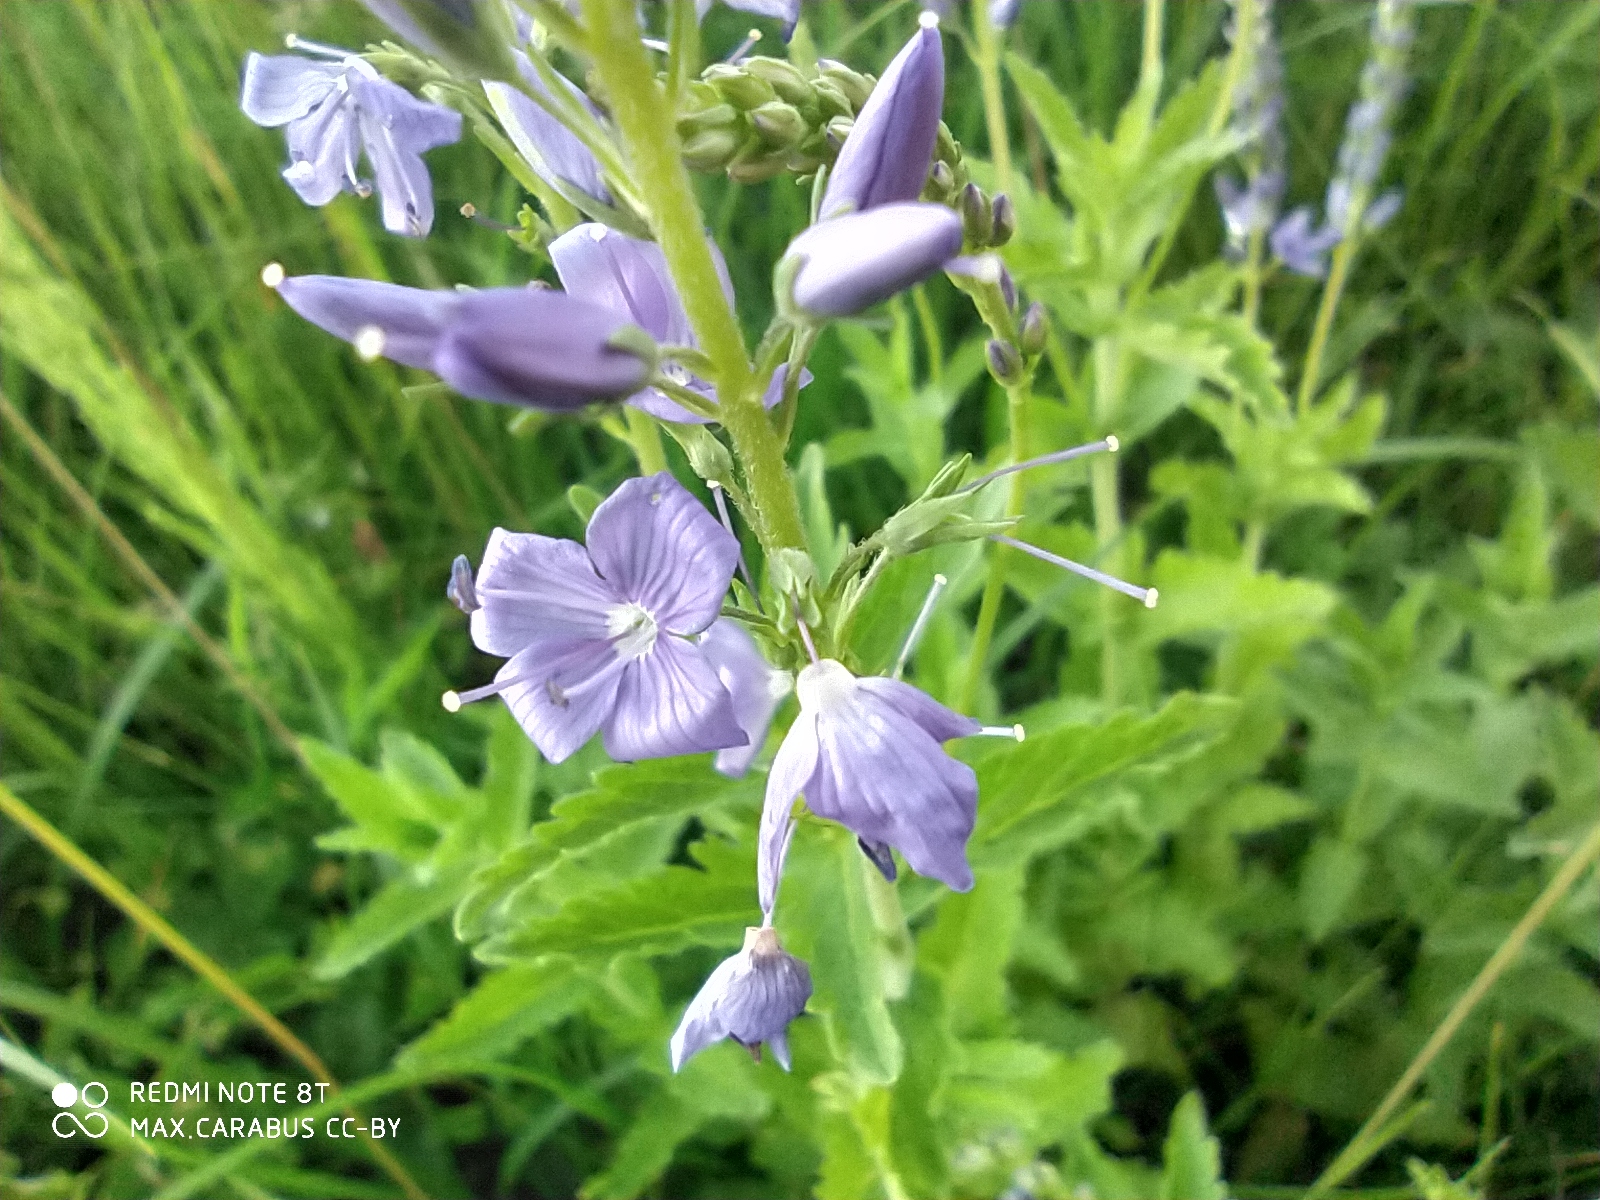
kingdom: Plantae
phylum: Tracheophyta
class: Magnoliopsida
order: Lamiales
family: Plantaginaceae
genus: Veronica
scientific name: Veronica teucrium
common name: Large speedwell
